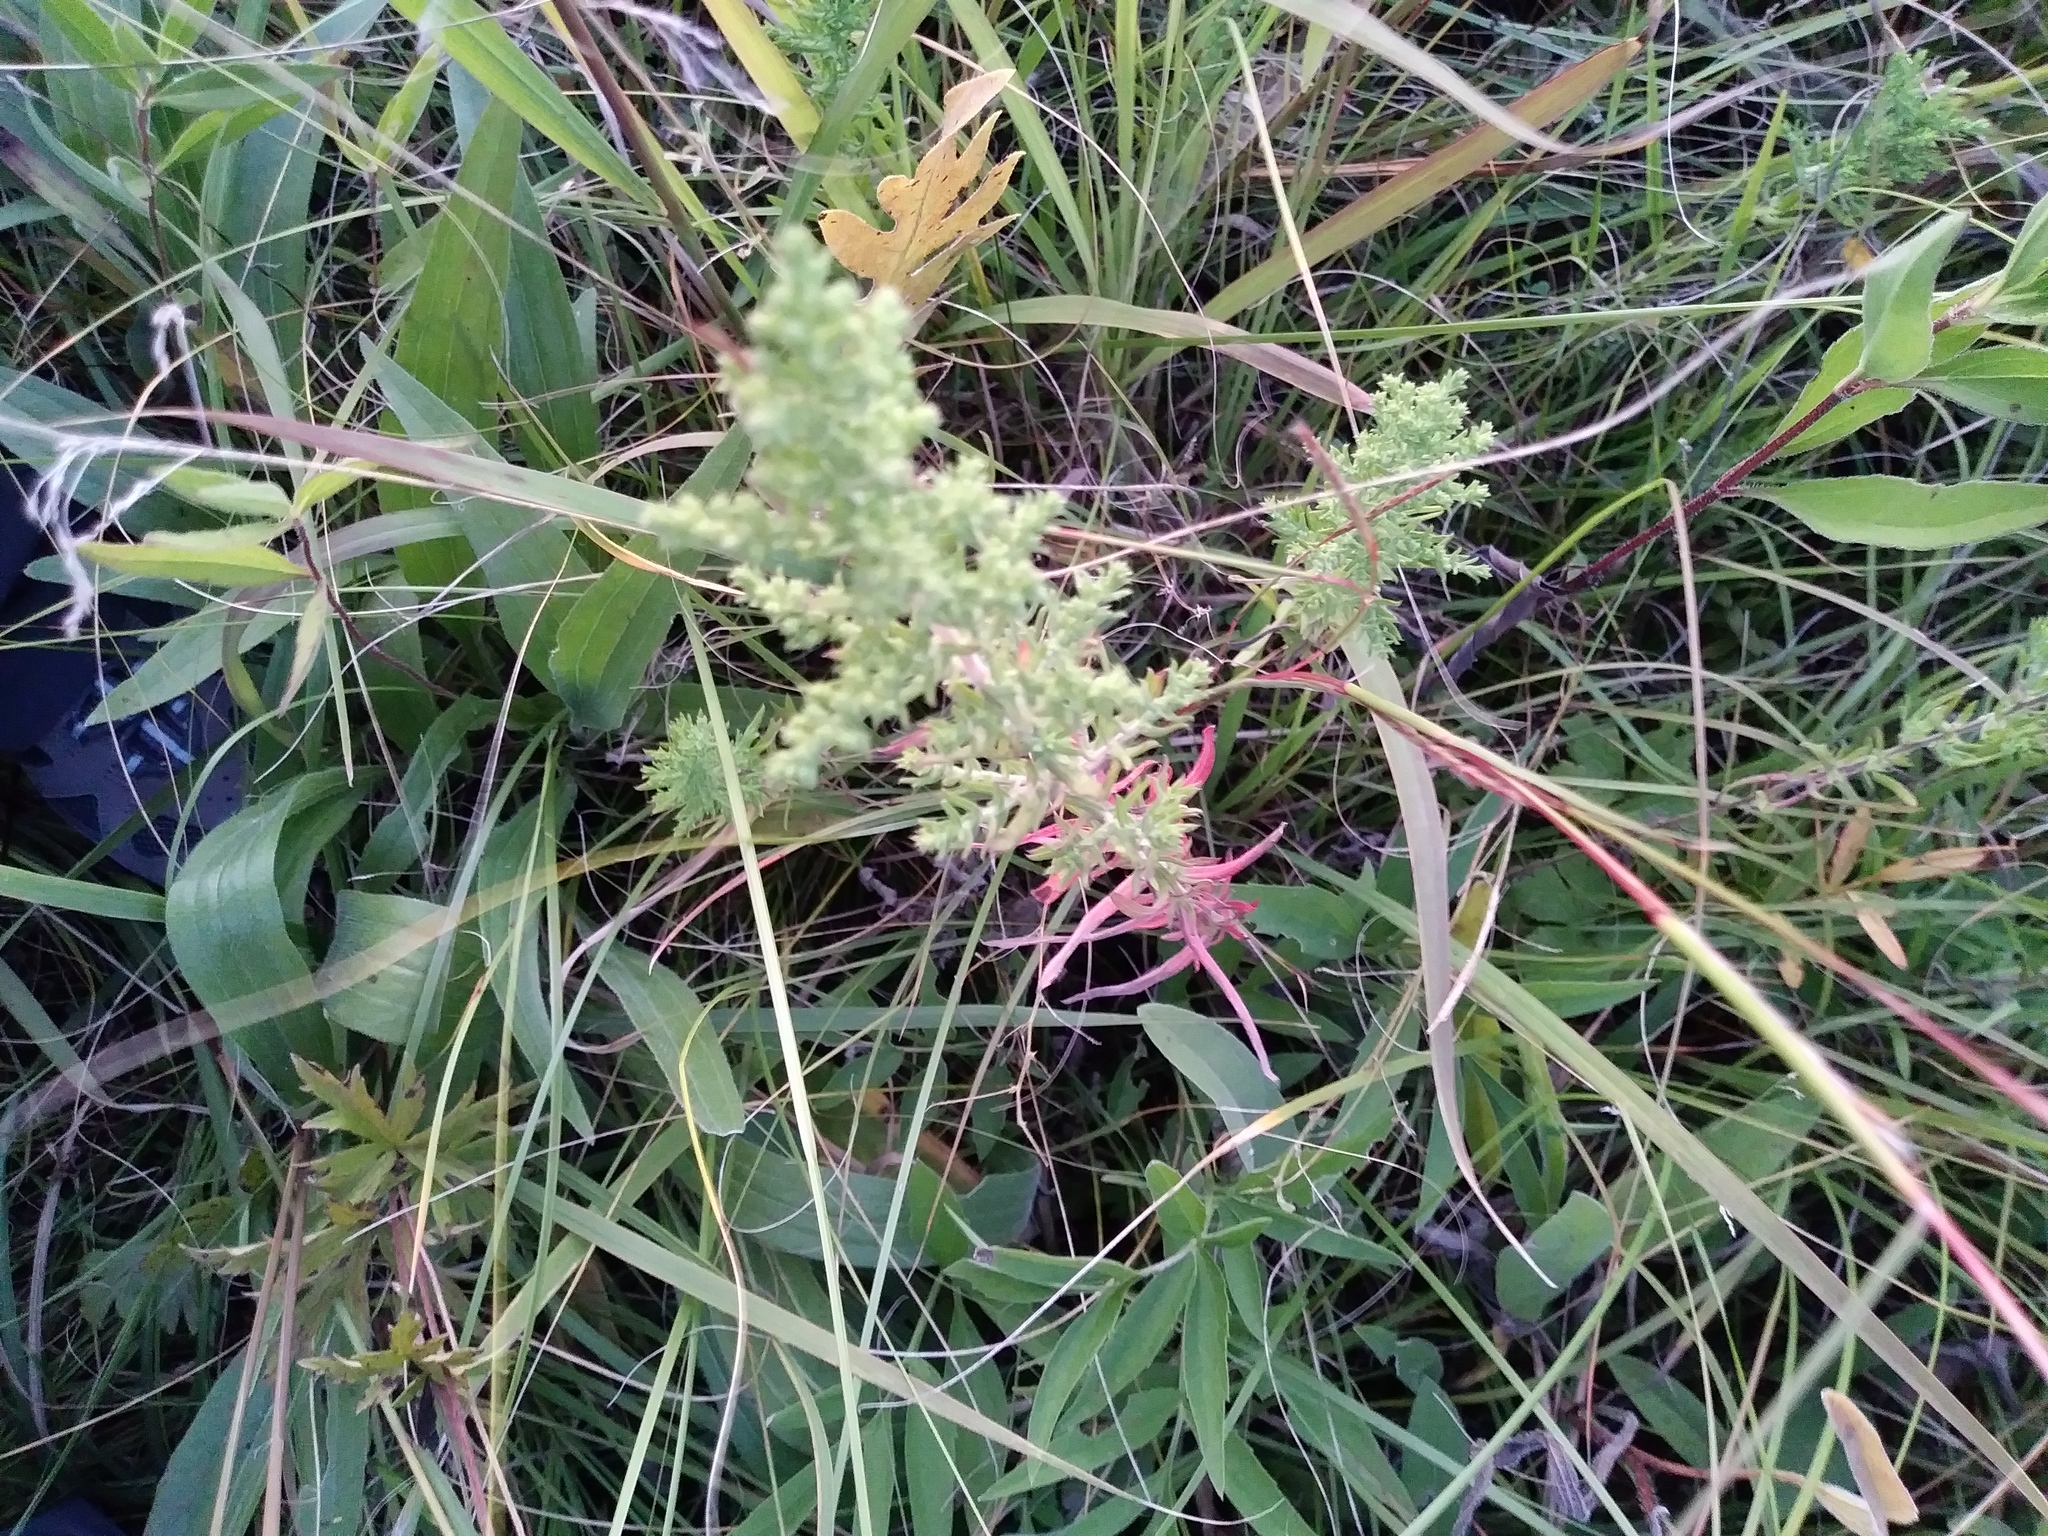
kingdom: Plantae
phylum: Tracheophyta
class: Magnoliopsida
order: Asterales
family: Asteraceae
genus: Symphyotrichum
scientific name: Symphyotrichum ericoides
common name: Heath aster
